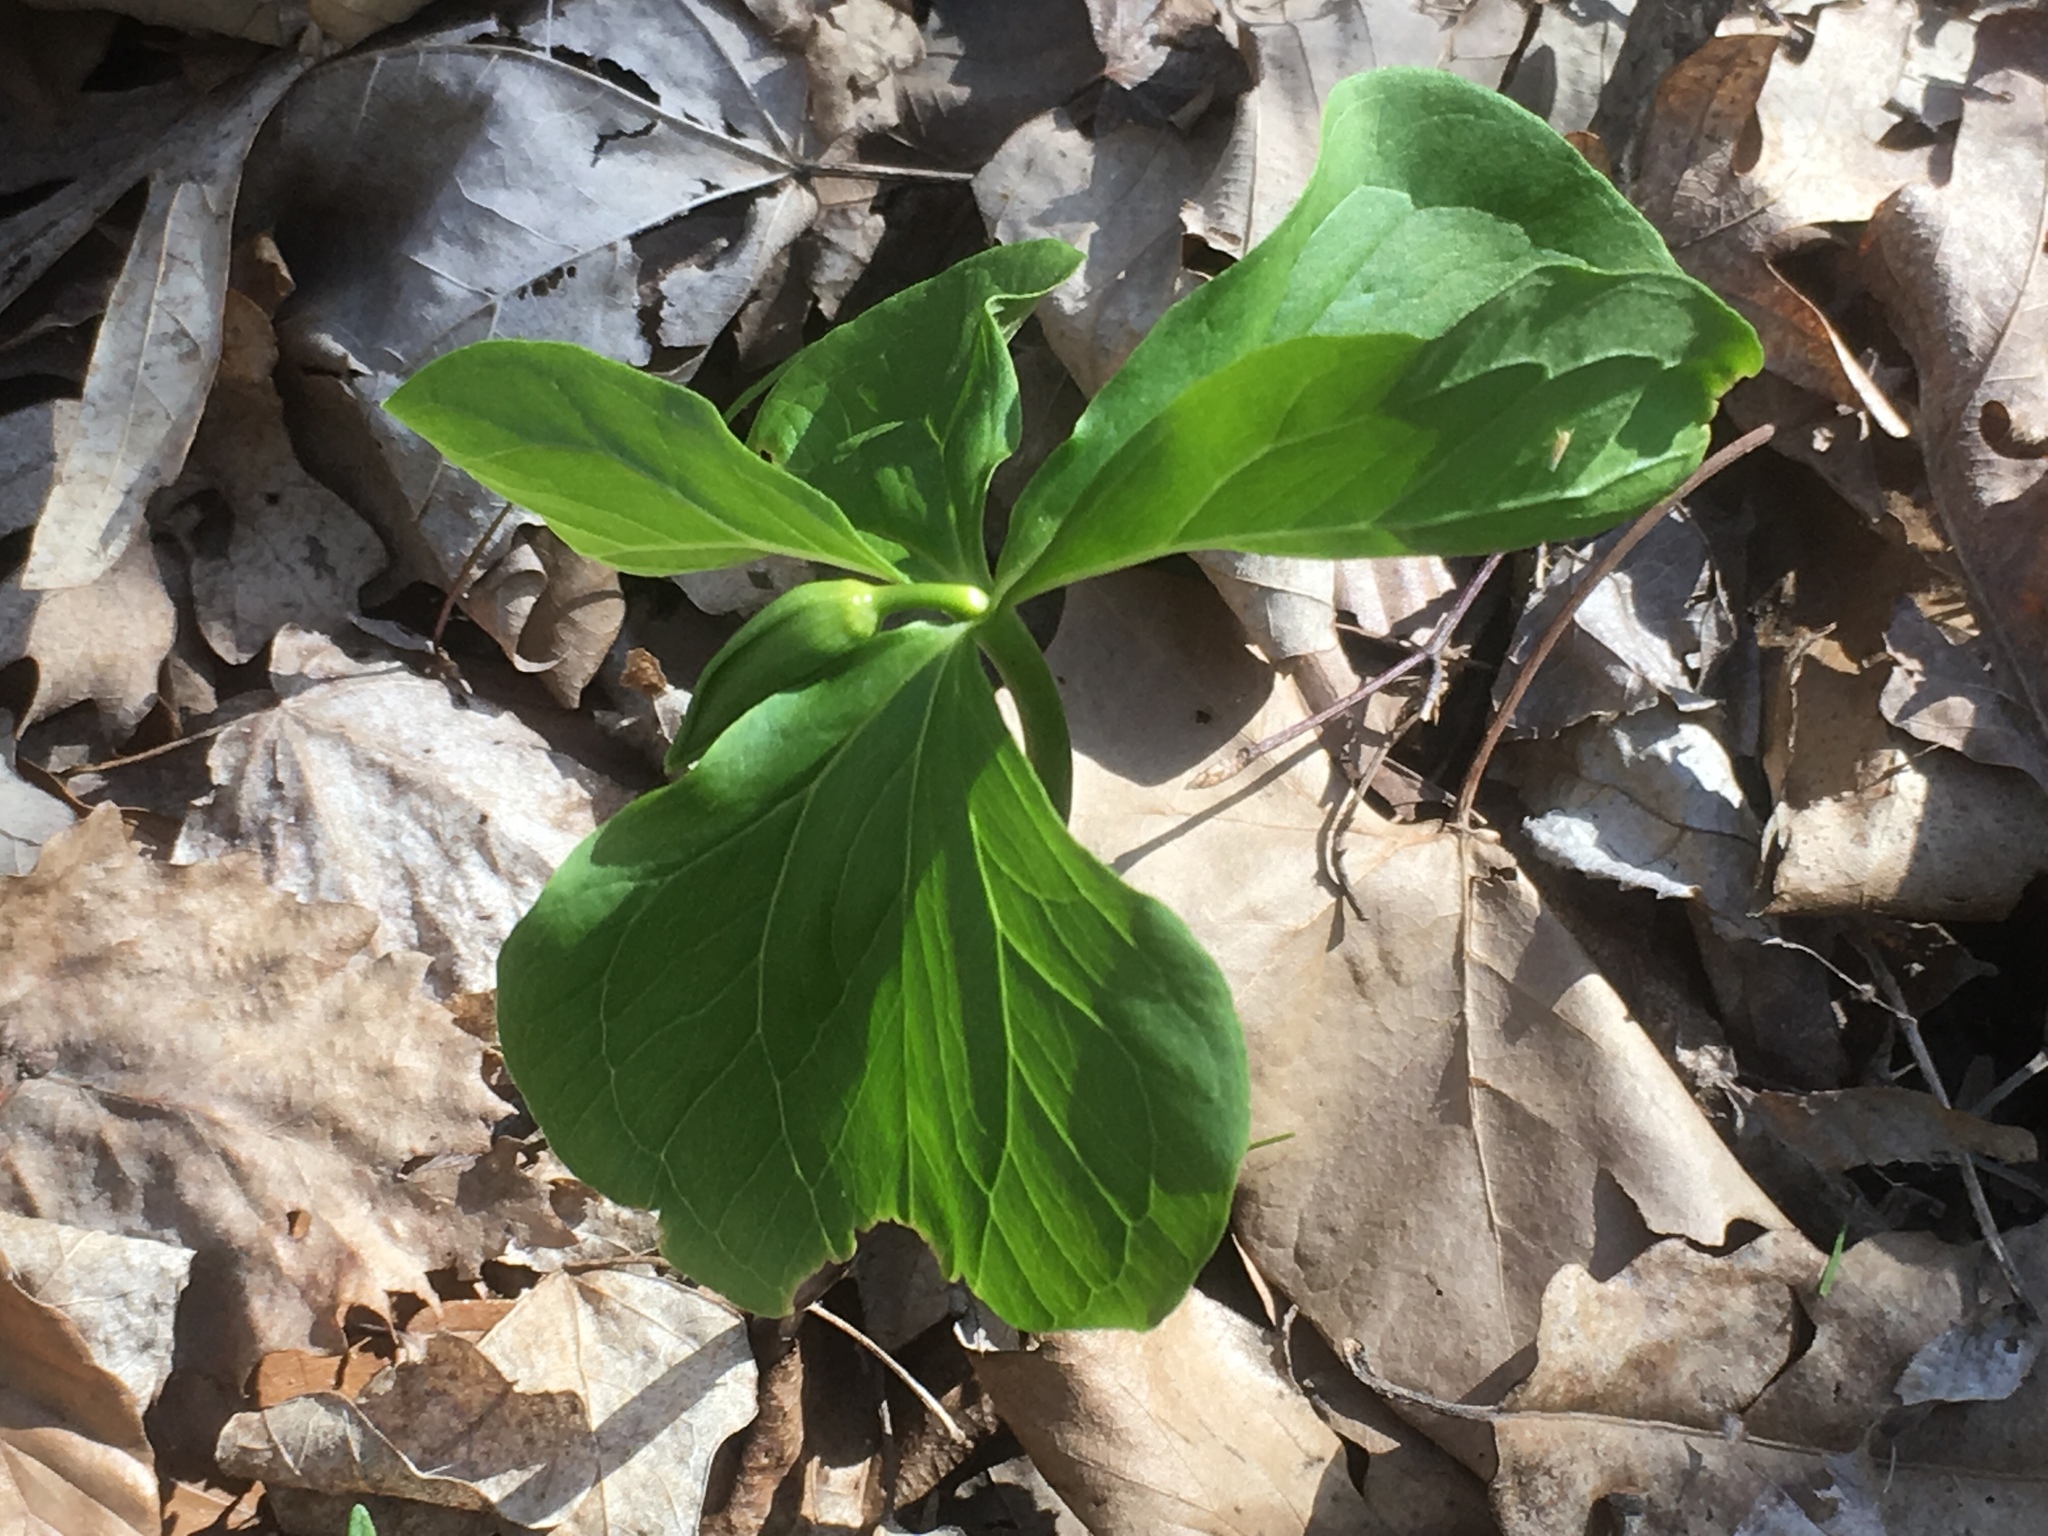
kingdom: Plantae
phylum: Tracheophyta
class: Liliopsida
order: Liliales
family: Melanthiaceae
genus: Trillium
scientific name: Trillium flexipes
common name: Drooping trillium
